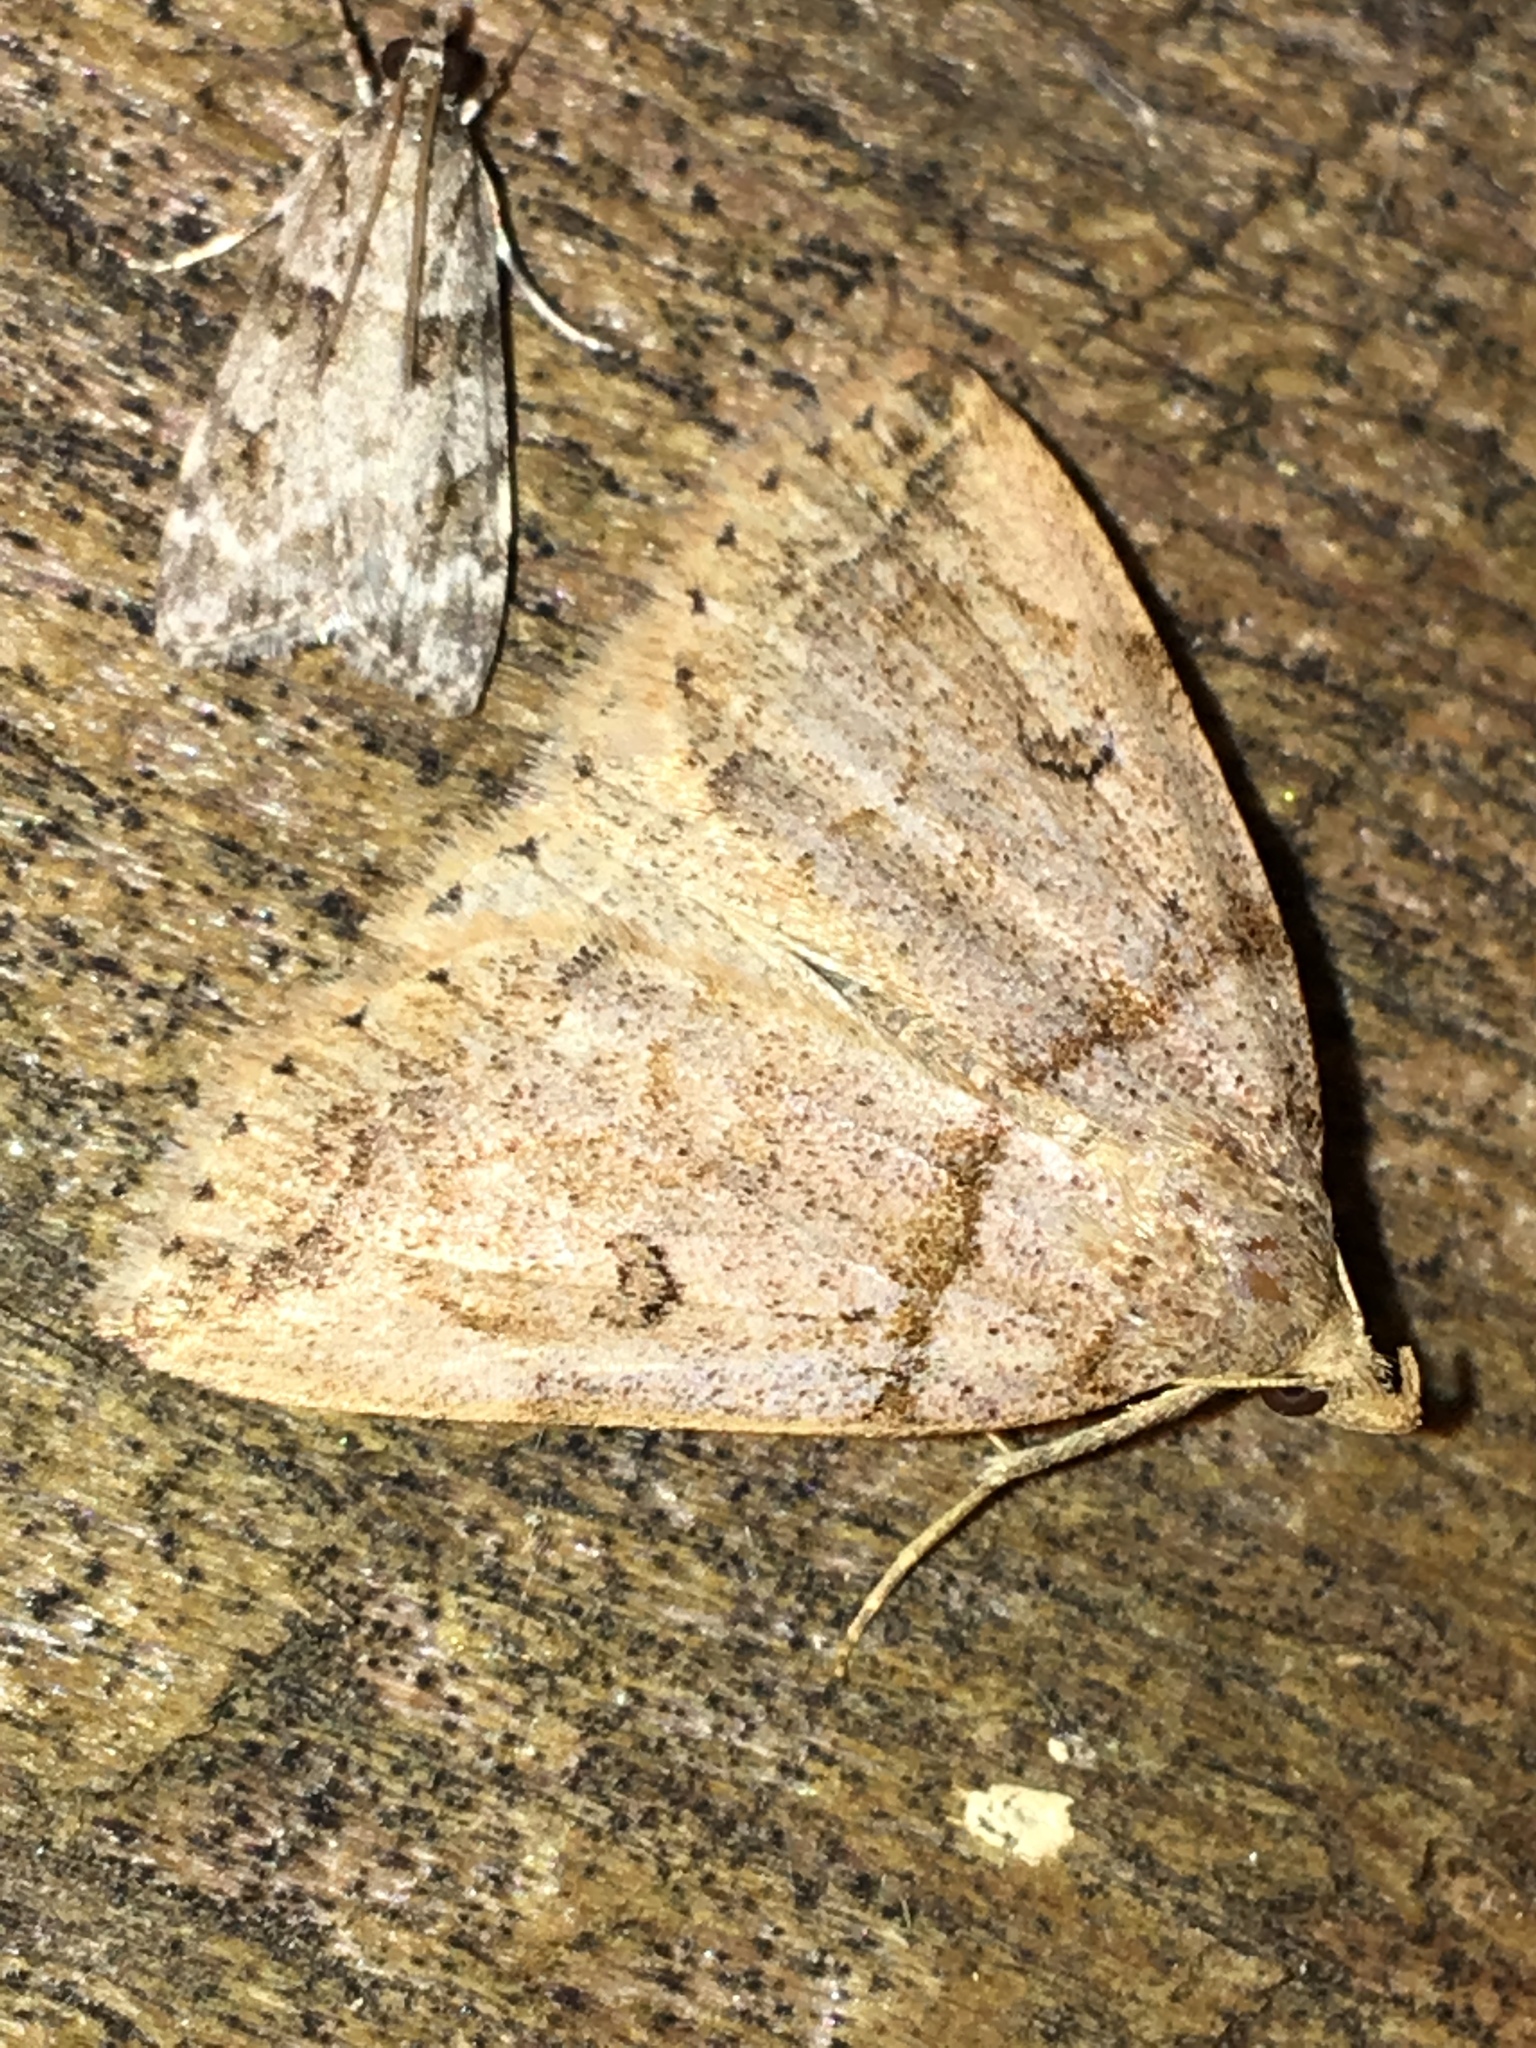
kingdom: Animalia
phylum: Arthropoda
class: Insecta
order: Lepidoptera
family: Erebidae
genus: Zanclognatha
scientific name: Zanclognatha laevigata
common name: Variable fan-foot
